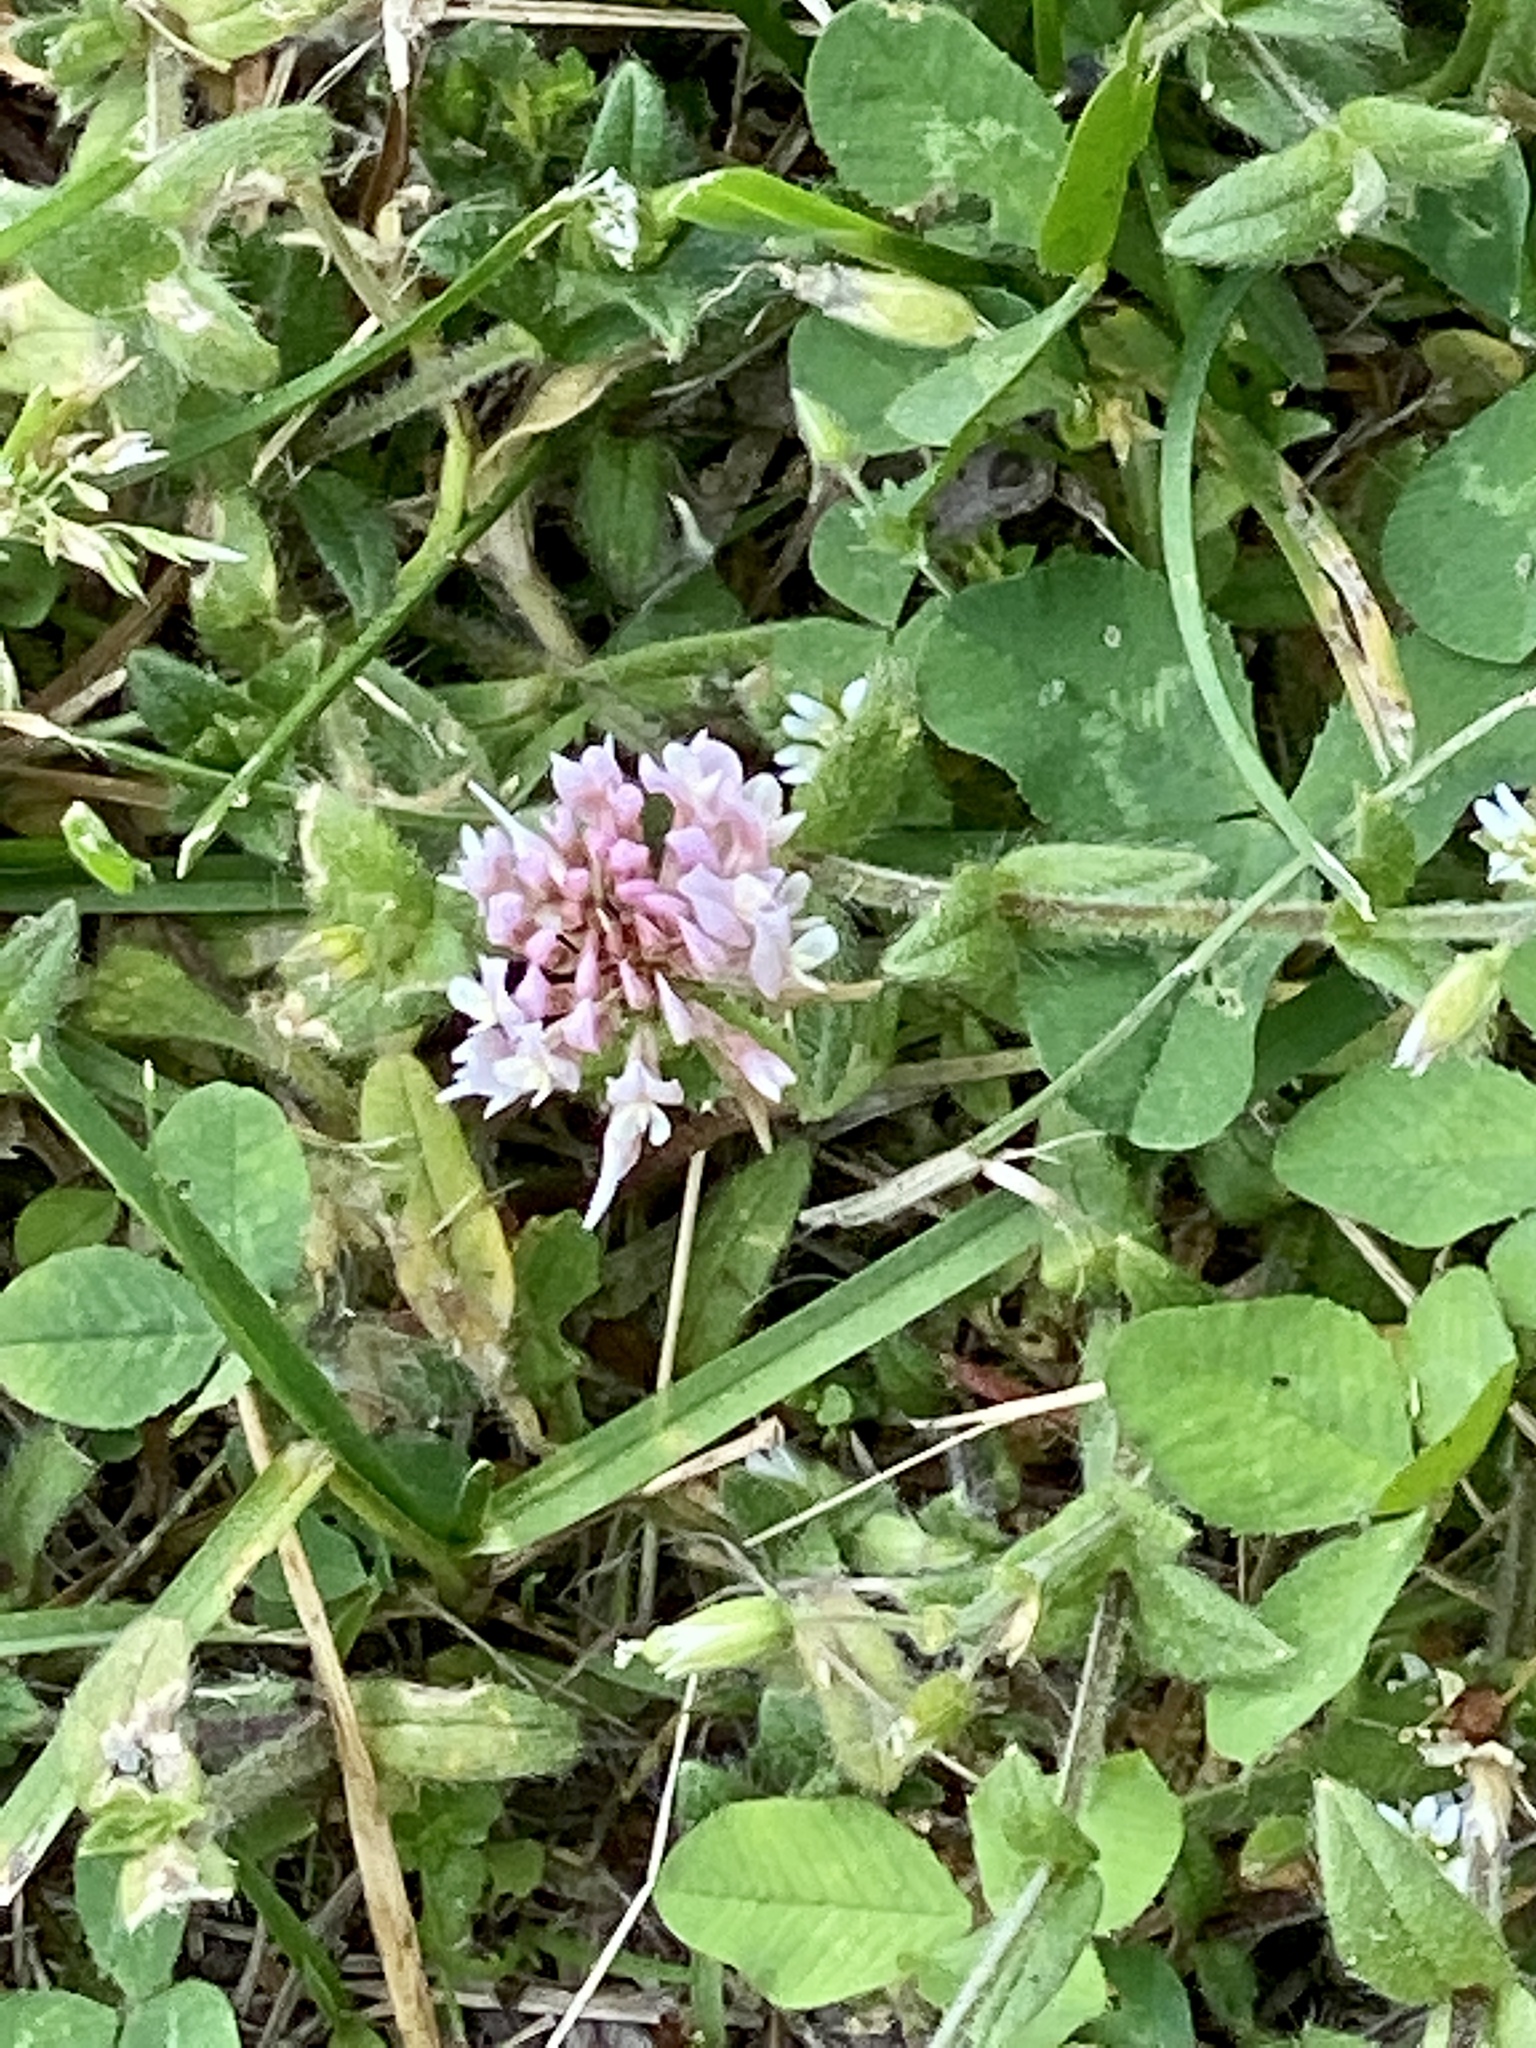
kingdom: Plantae
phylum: Tracheophyta
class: Magnoliopsida
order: Fabales
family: Fabaceae
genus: Trifolium
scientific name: Trifolium repens
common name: White clover
